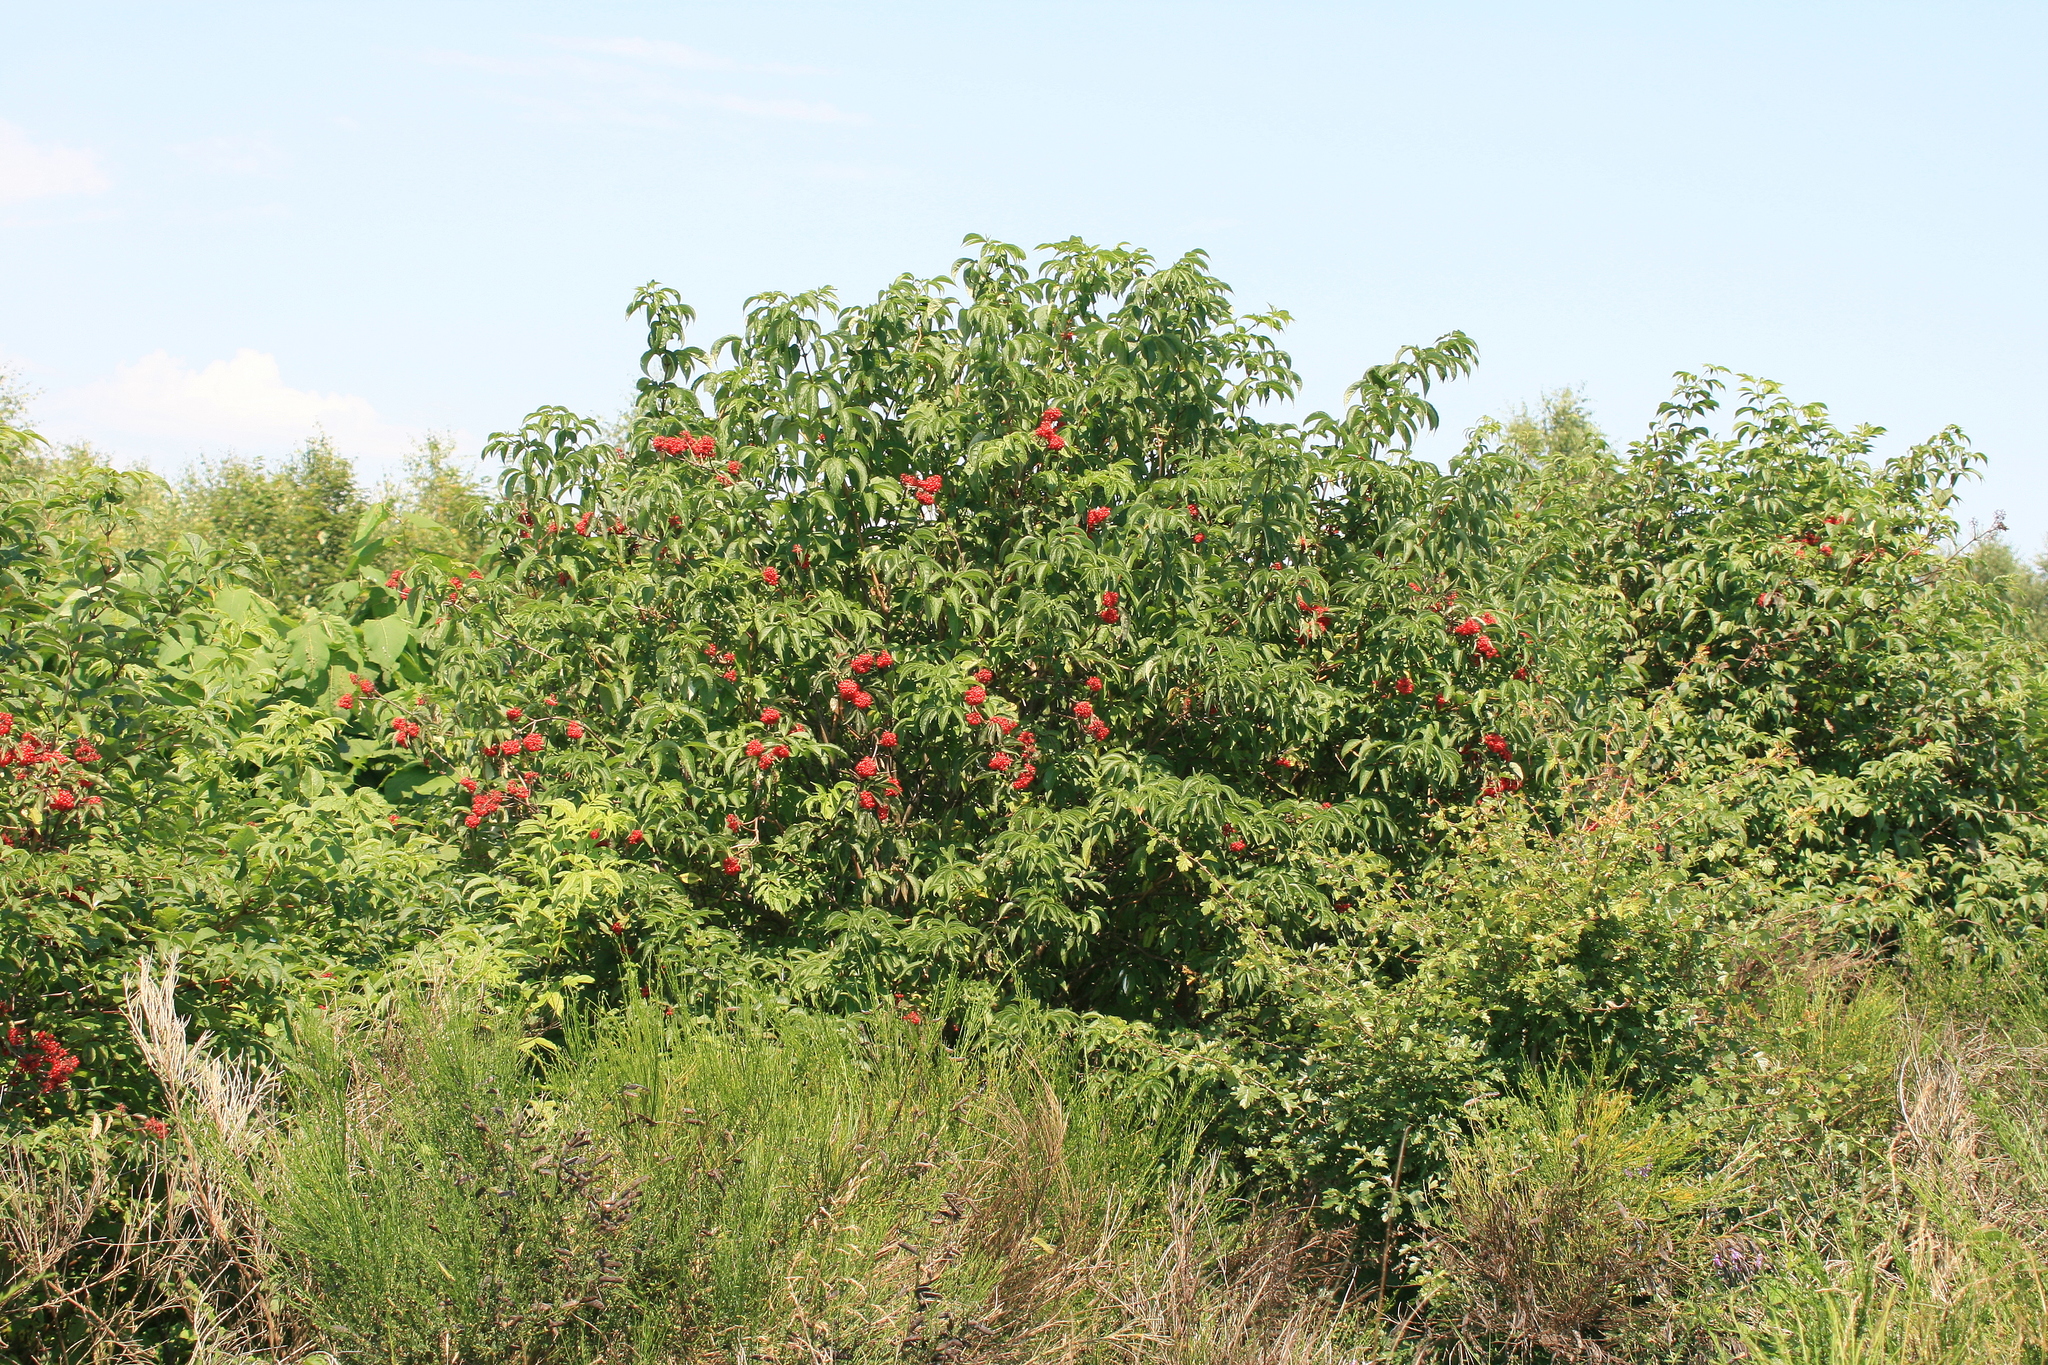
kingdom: Plantae
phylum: Tracheophyta
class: Magnoliopsida
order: Dipsacales
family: Viburnaceae
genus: Sambucus
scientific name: Sambucus racemosa
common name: Red-berried elder
